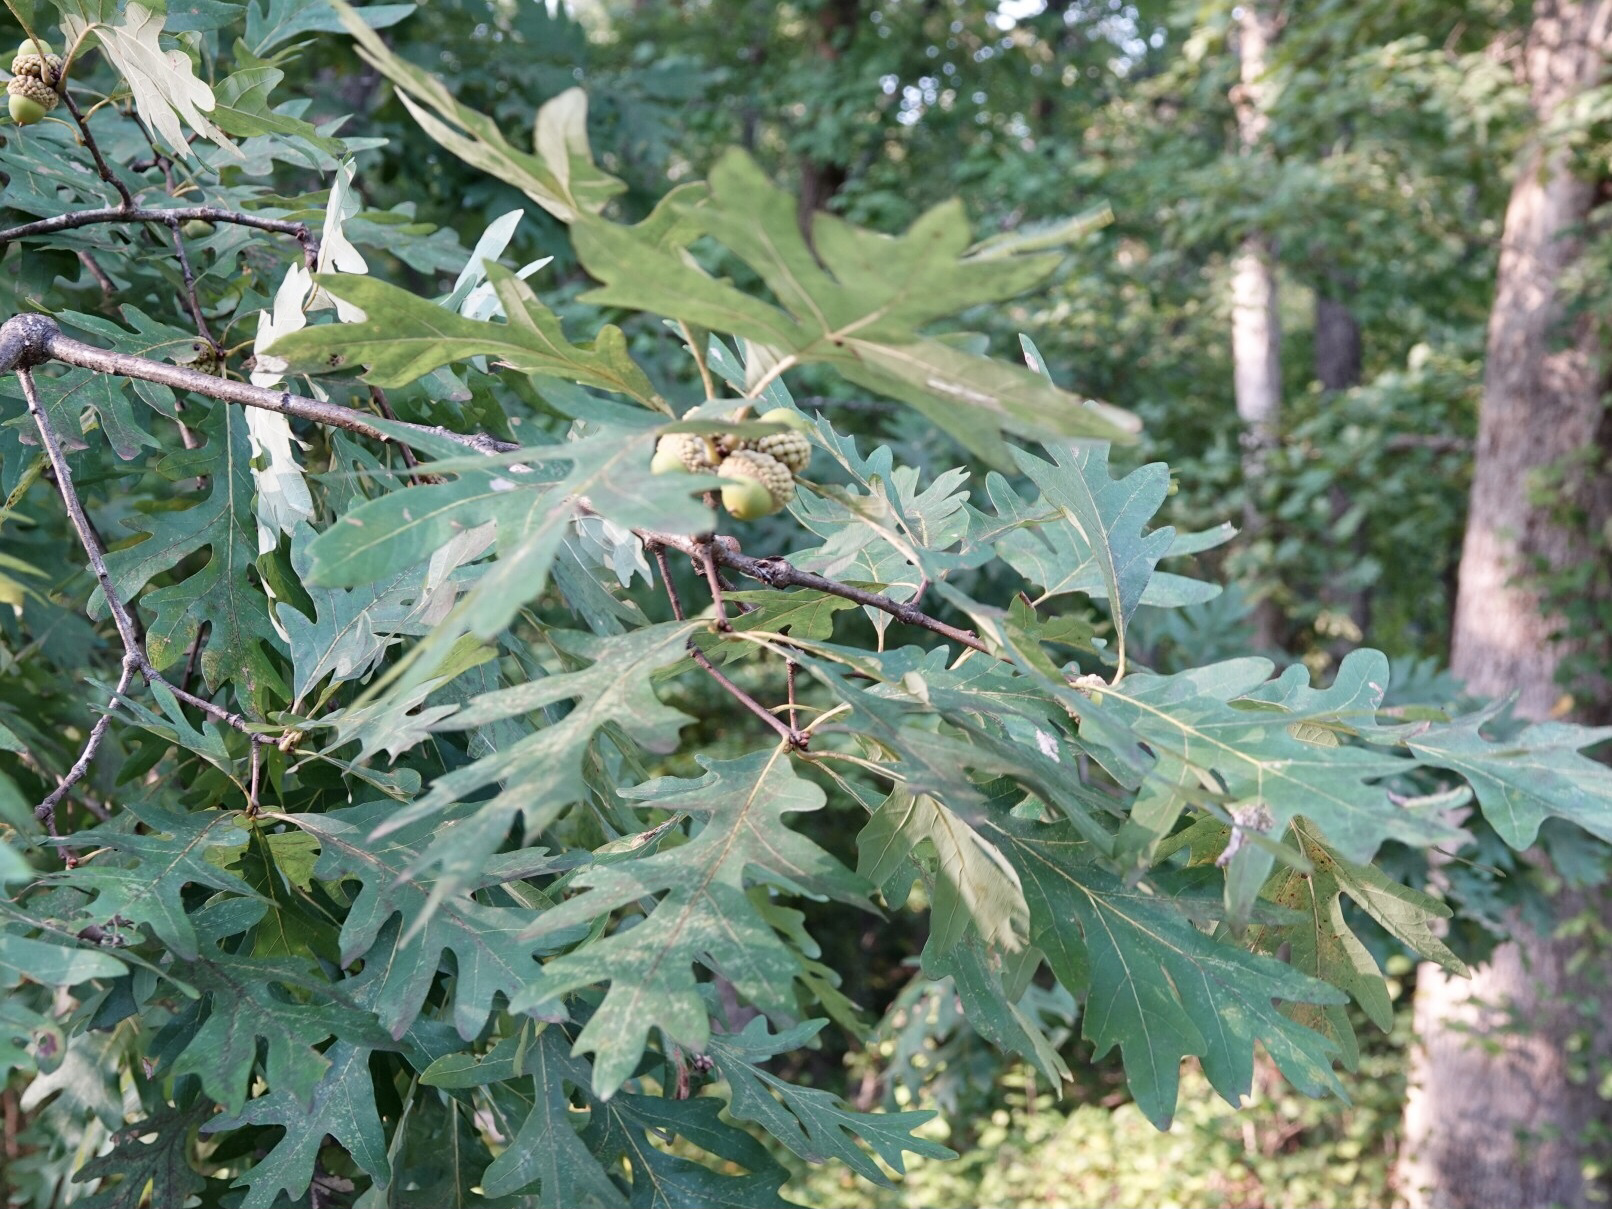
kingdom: Plantae
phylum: Tracheophyta
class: Magnoliopsida
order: Fagales
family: Fagaceae
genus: Quercus
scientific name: Quercus alba
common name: White oak
